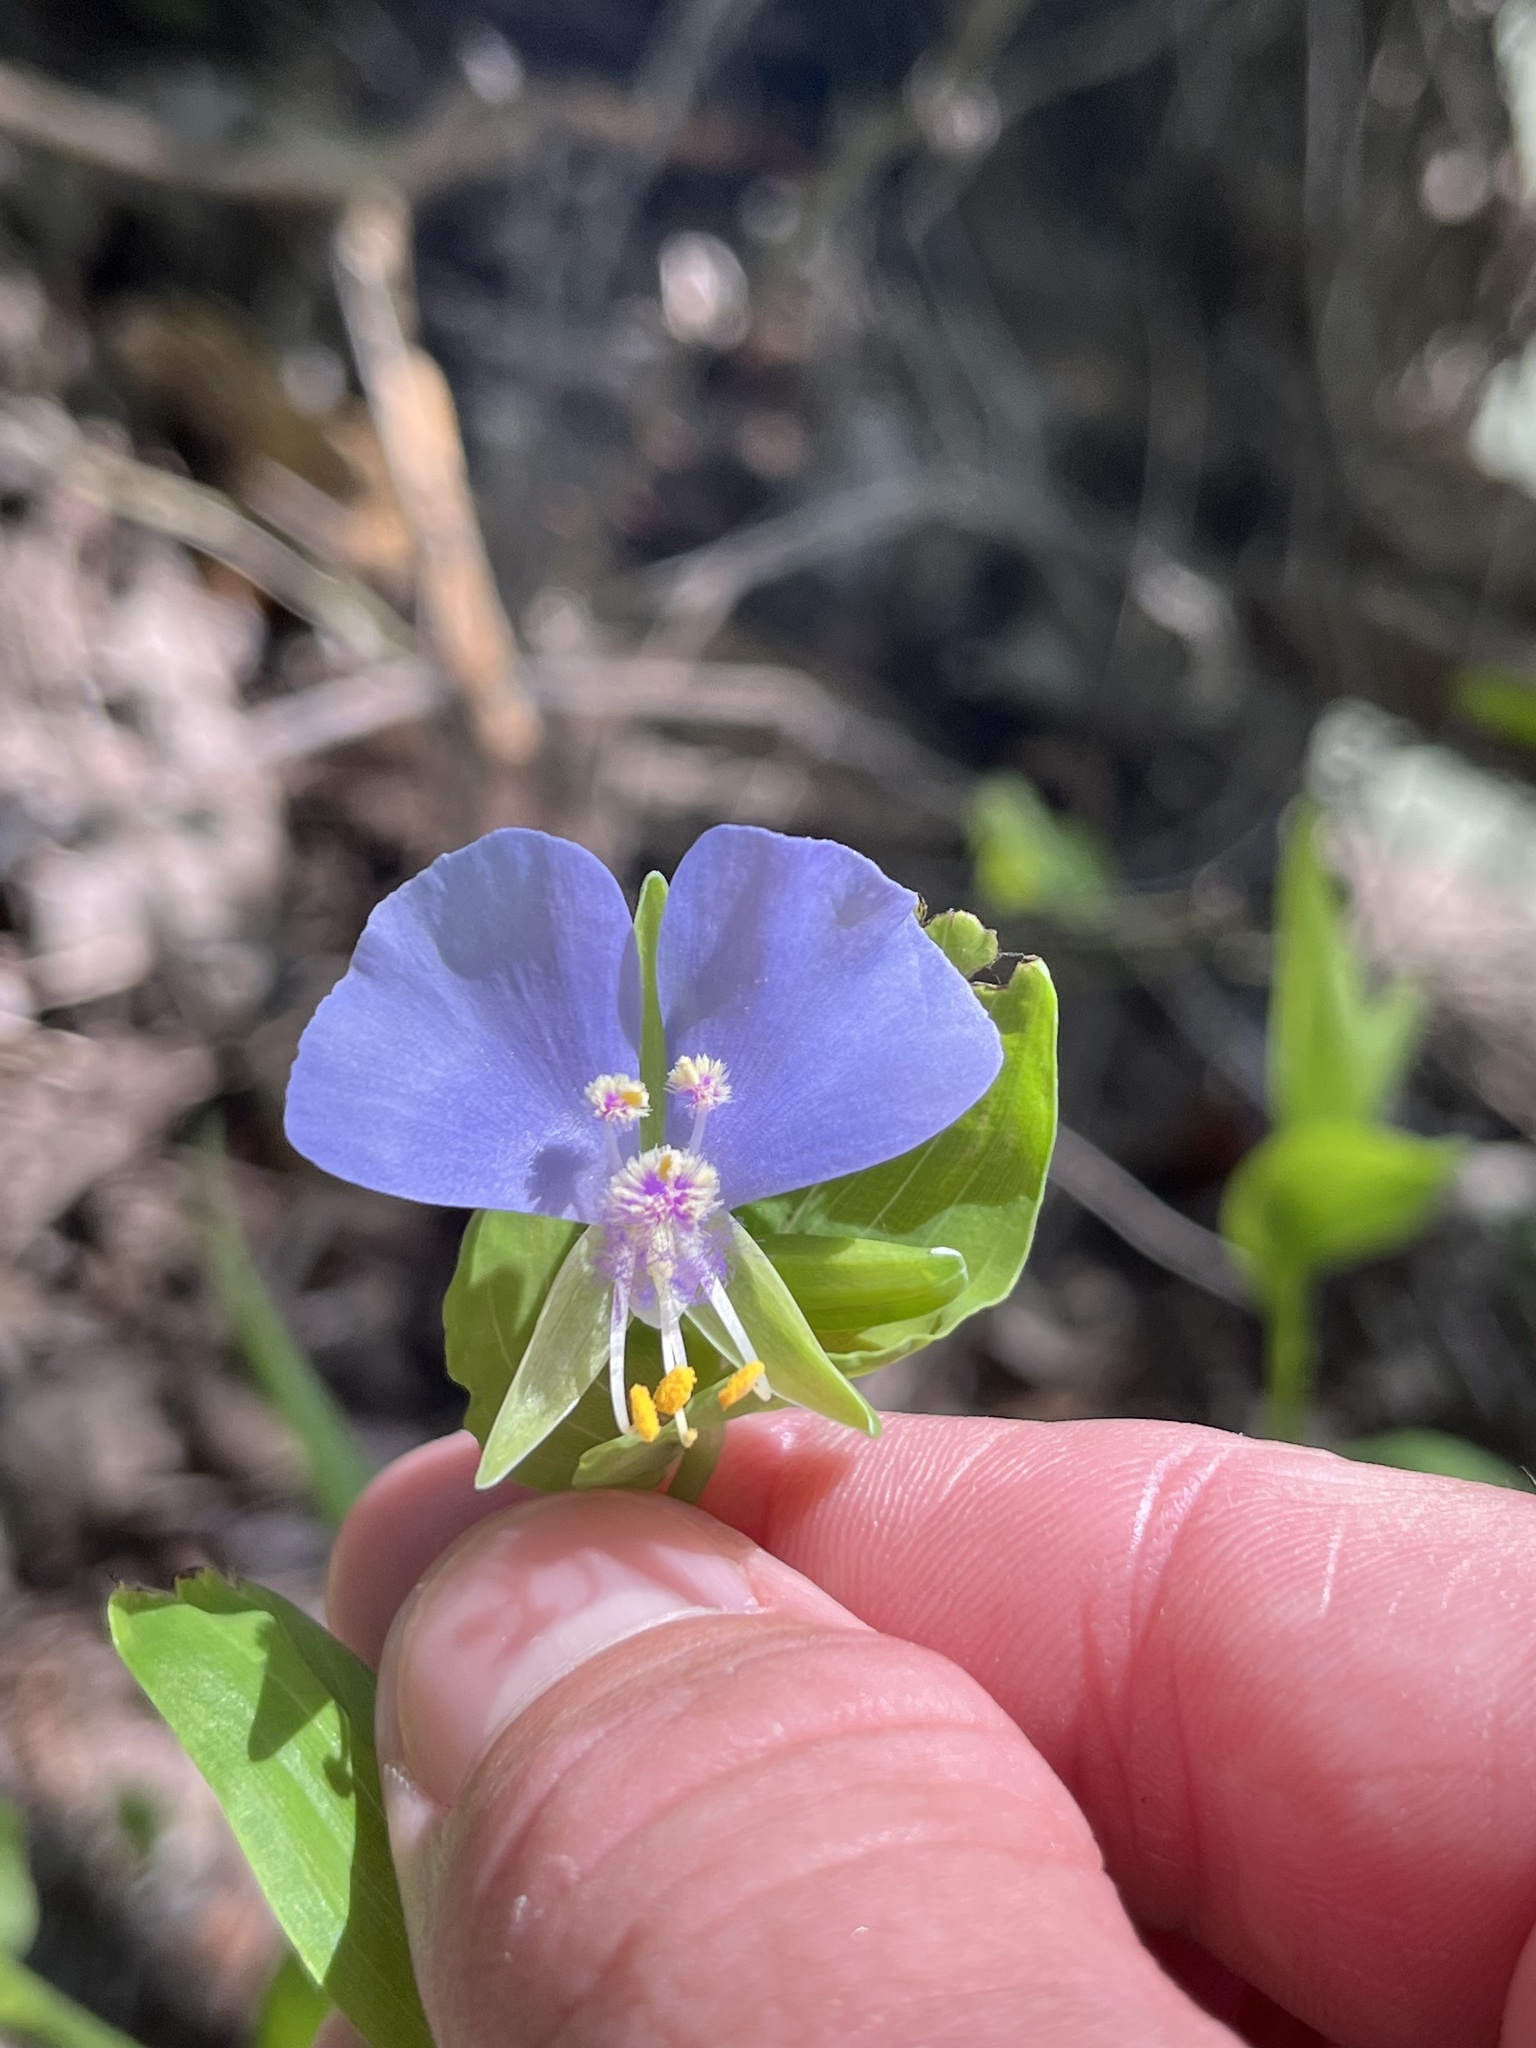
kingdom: Plantae
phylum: Tracheophyta
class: Liliopsida
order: Commelinales
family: Commelinaceae
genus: Tinantia
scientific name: Tinantia anomala
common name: False dayflower
